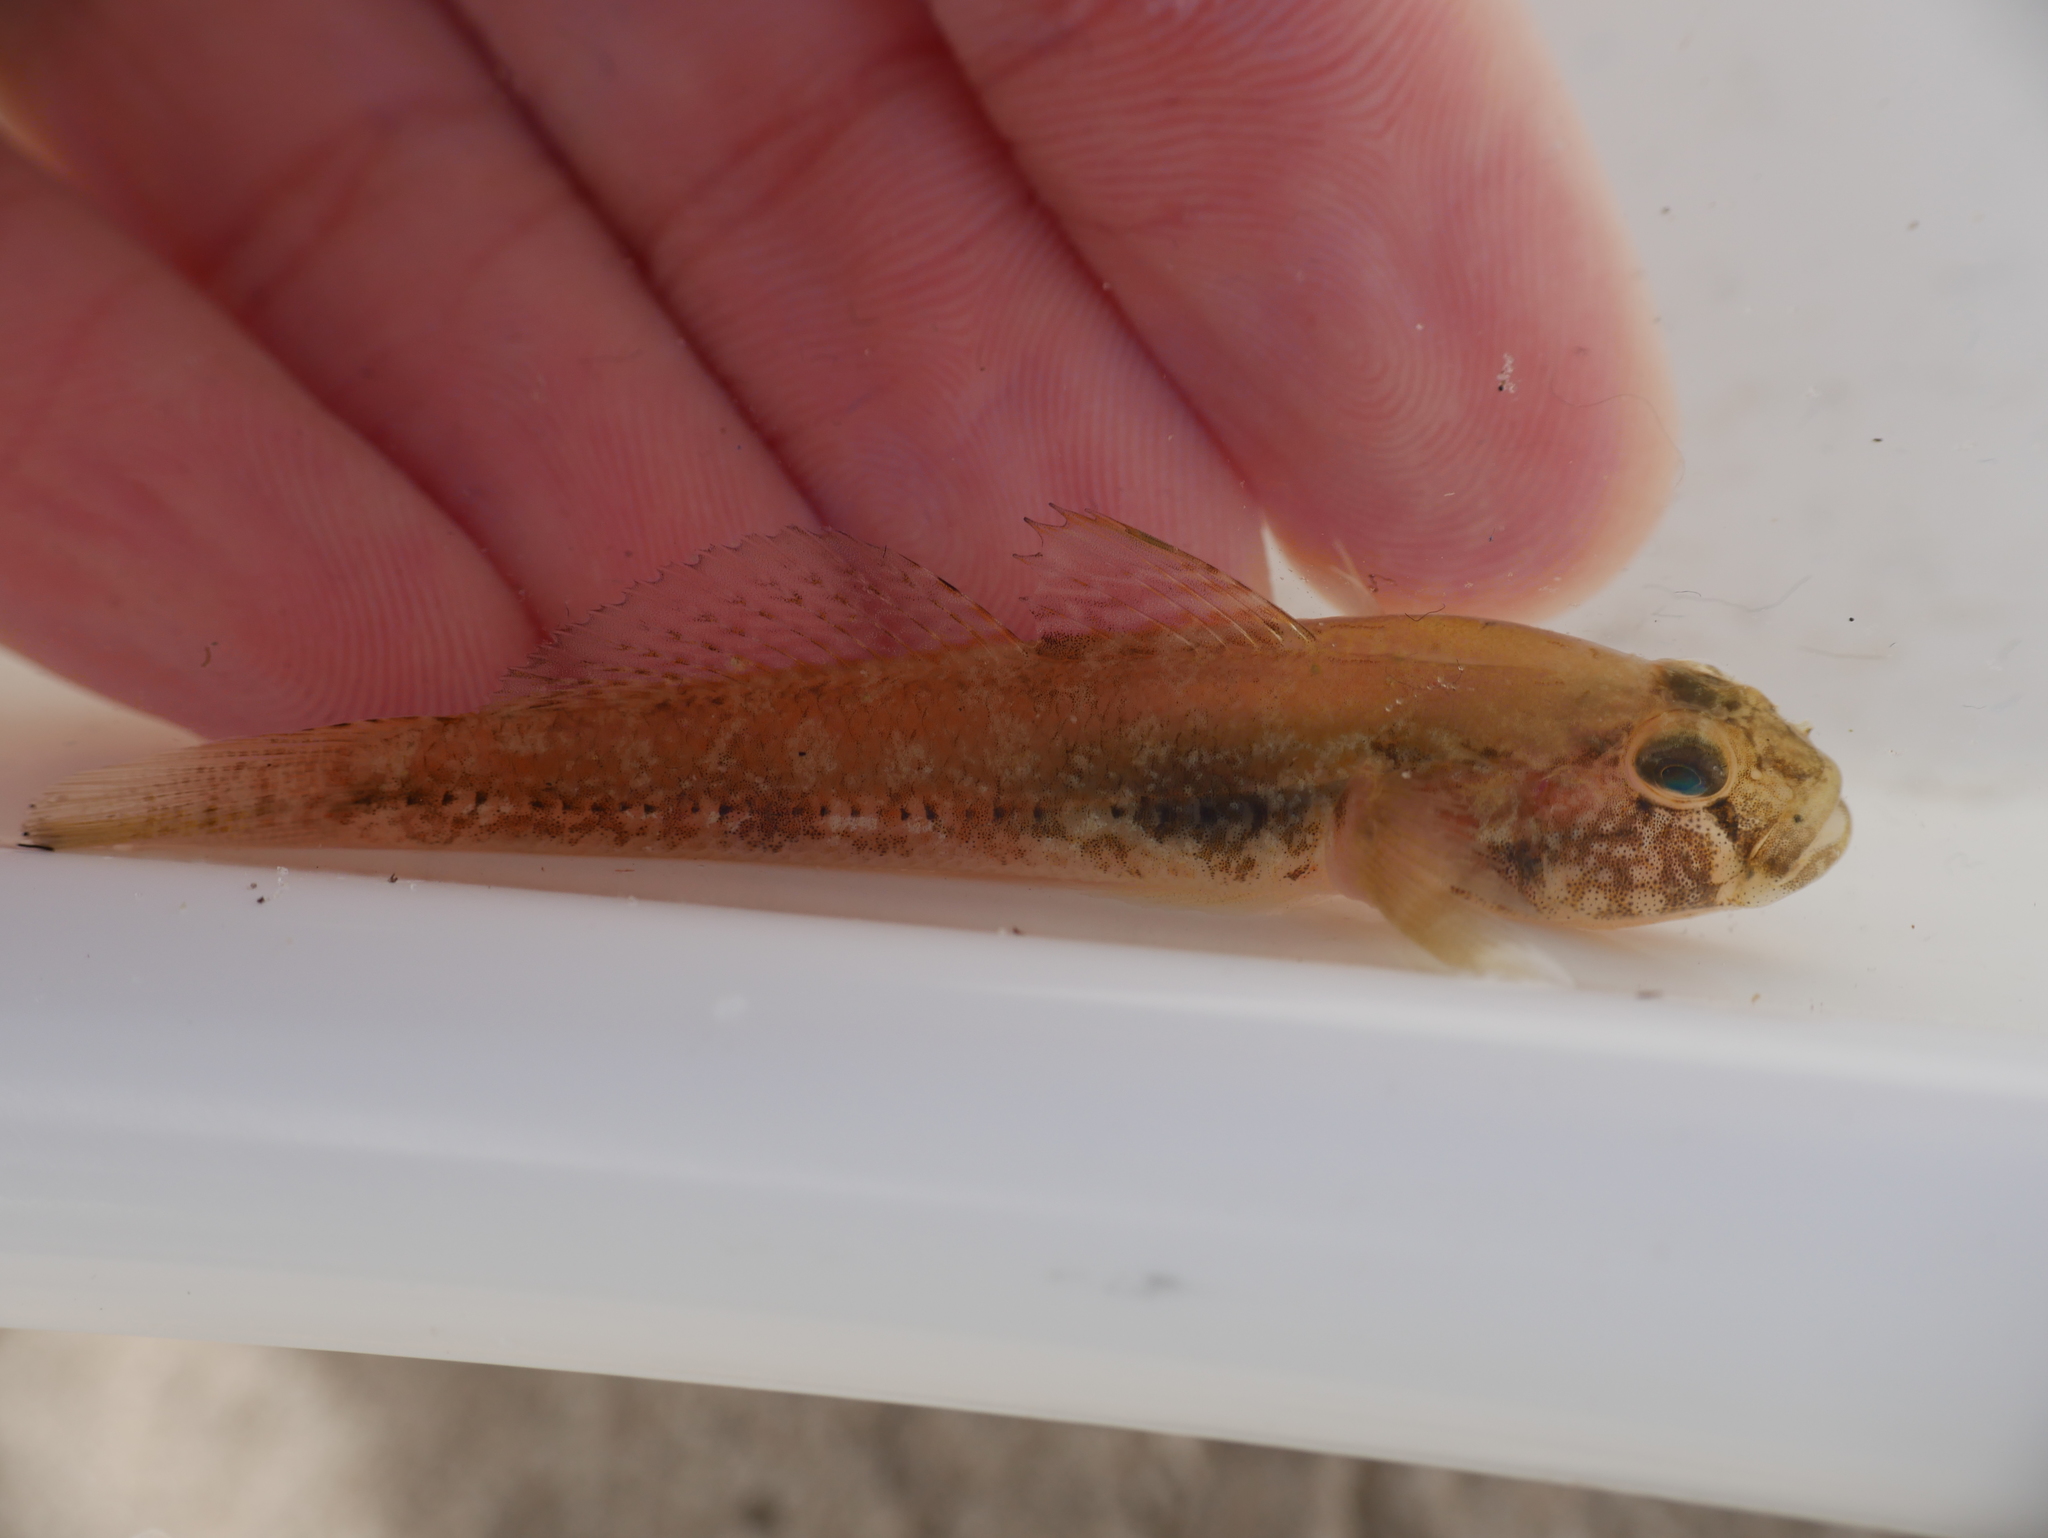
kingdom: Animalia
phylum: Chordata
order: Perciformes
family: Gobiidae
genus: Gobius
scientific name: Gobius niger
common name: Black goby
